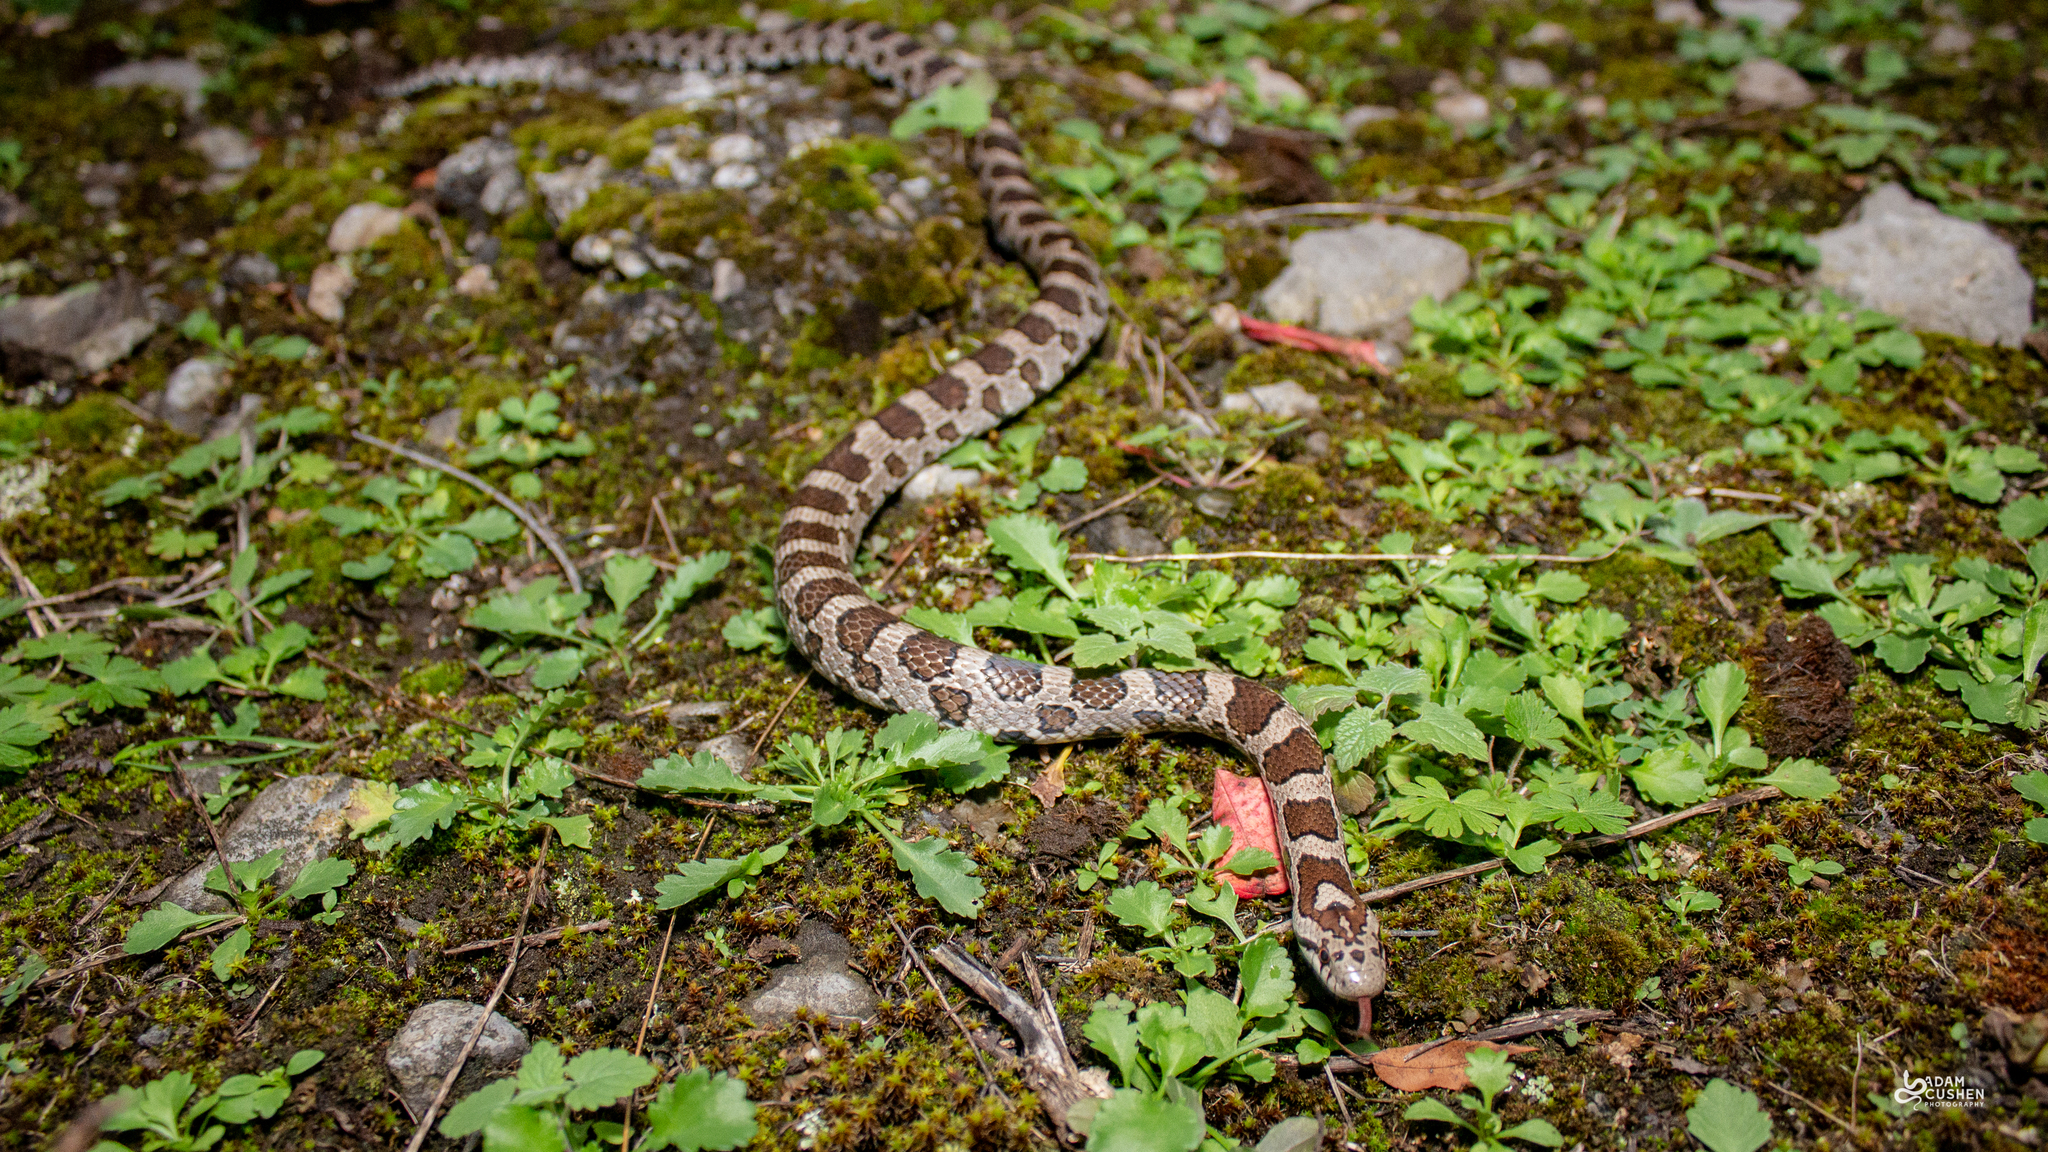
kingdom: Animalia
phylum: Chordata
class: Squamata
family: Colubridae
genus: Lampropeltis
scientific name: Lampropeltis triangulum
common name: Eastern milksnake
